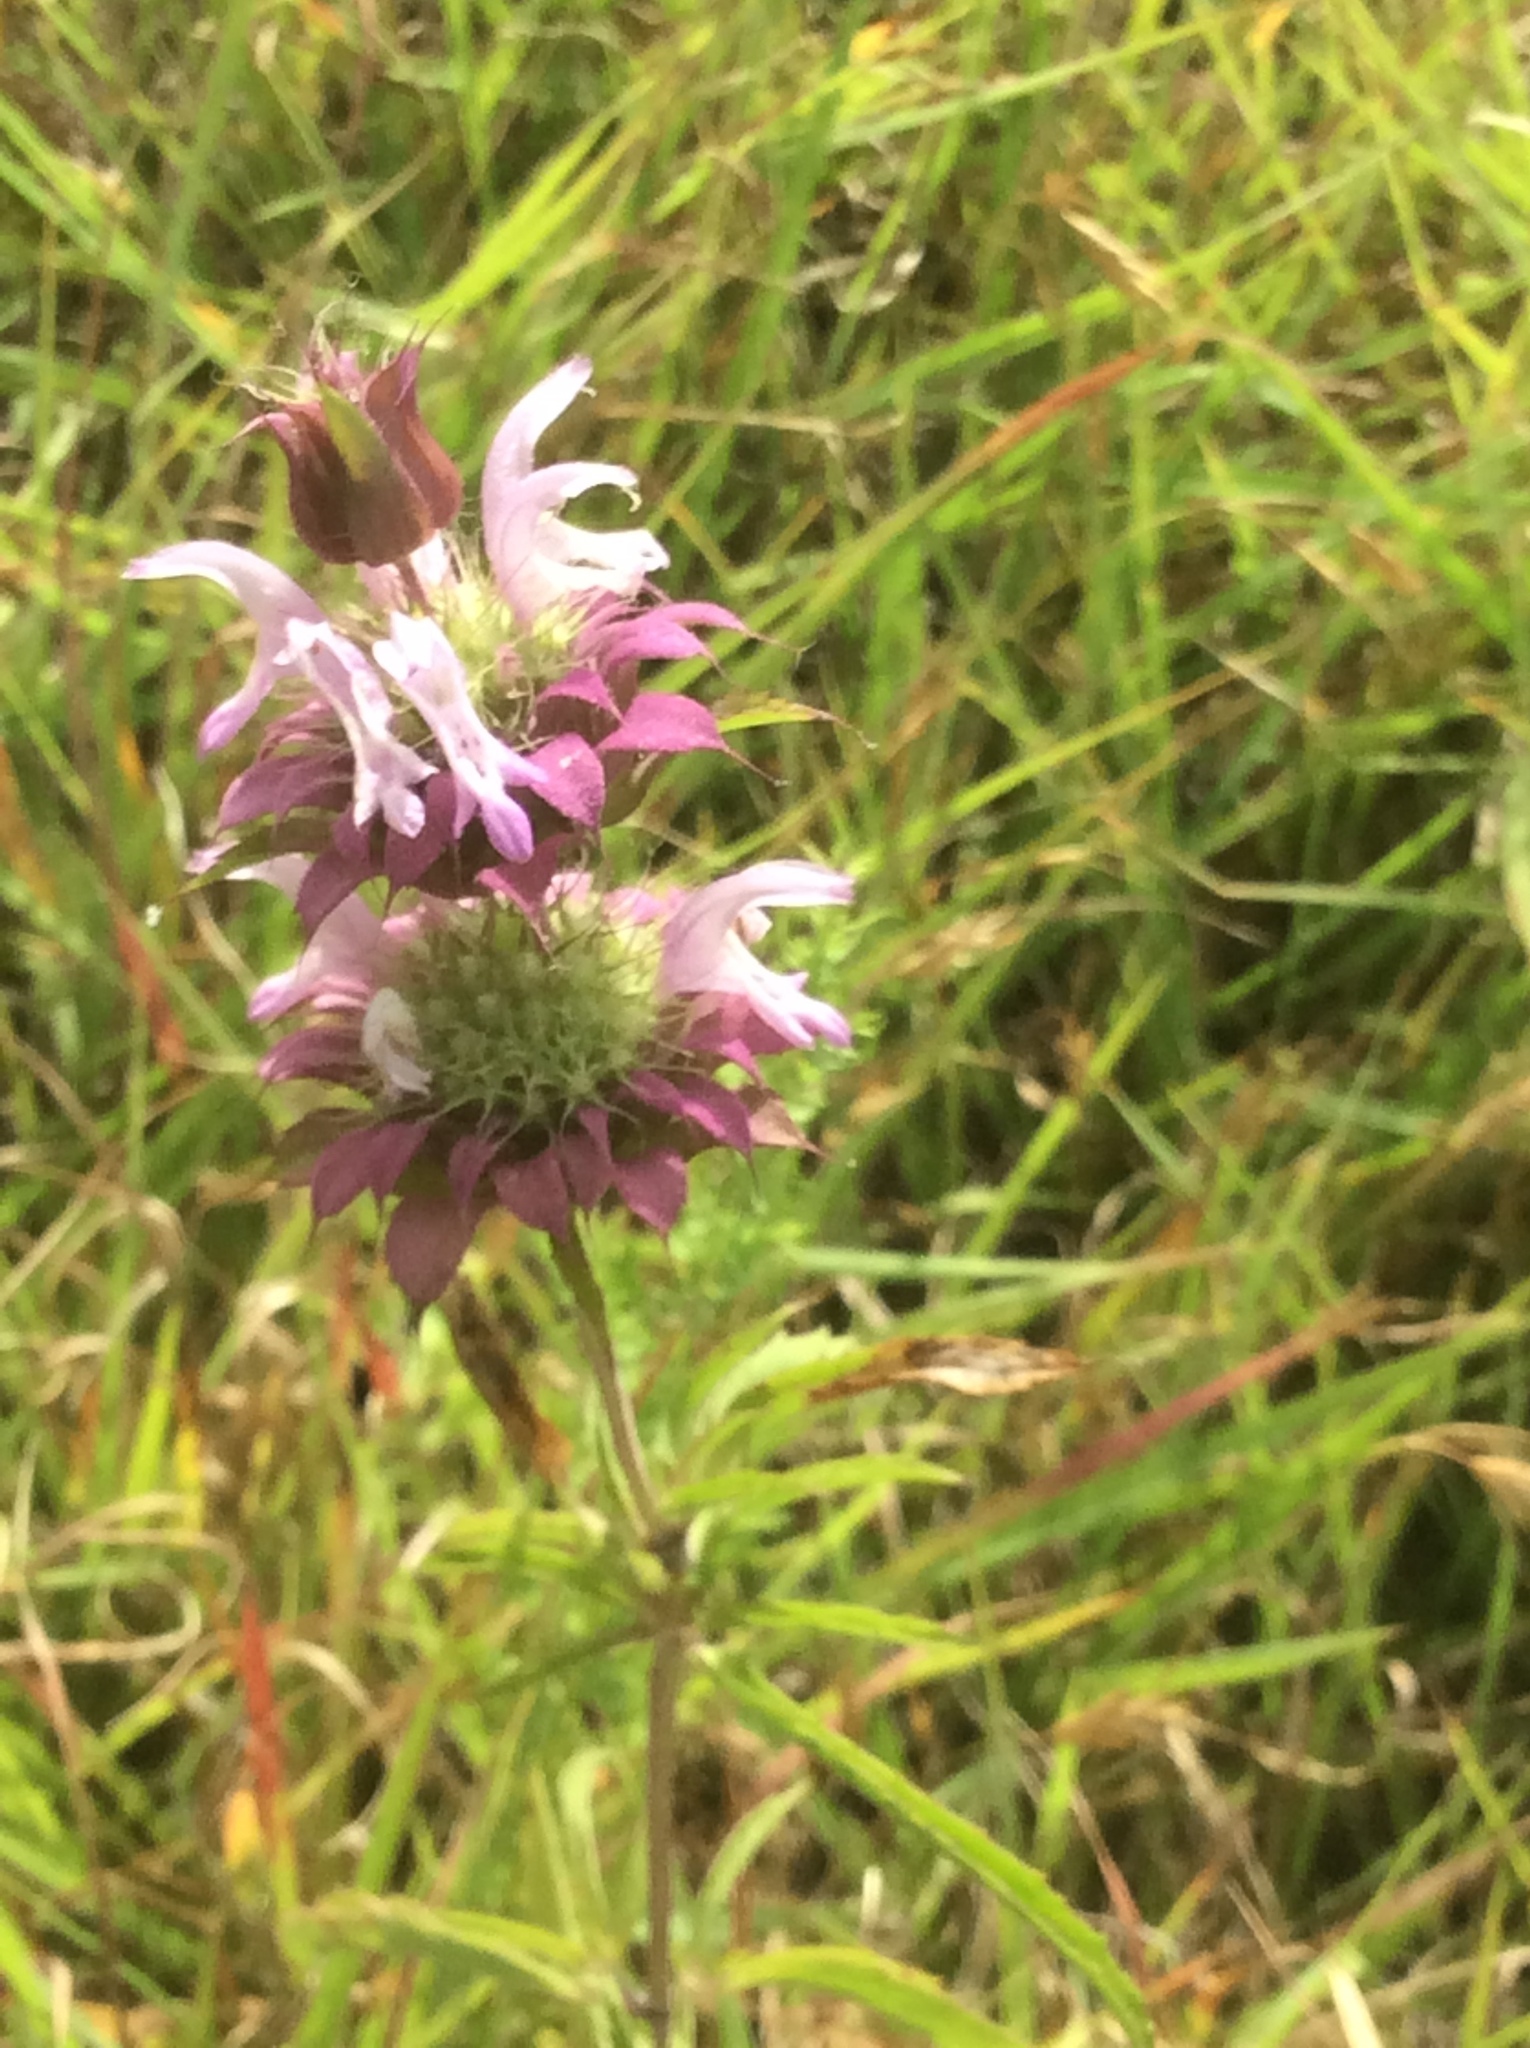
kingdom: Plantae
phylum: Tracheophyta
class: Magnoliopsida
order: Lamiales
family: Lamiaceae
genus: Monarda
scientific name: Monarda citriodora
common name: Lemon beebalm
